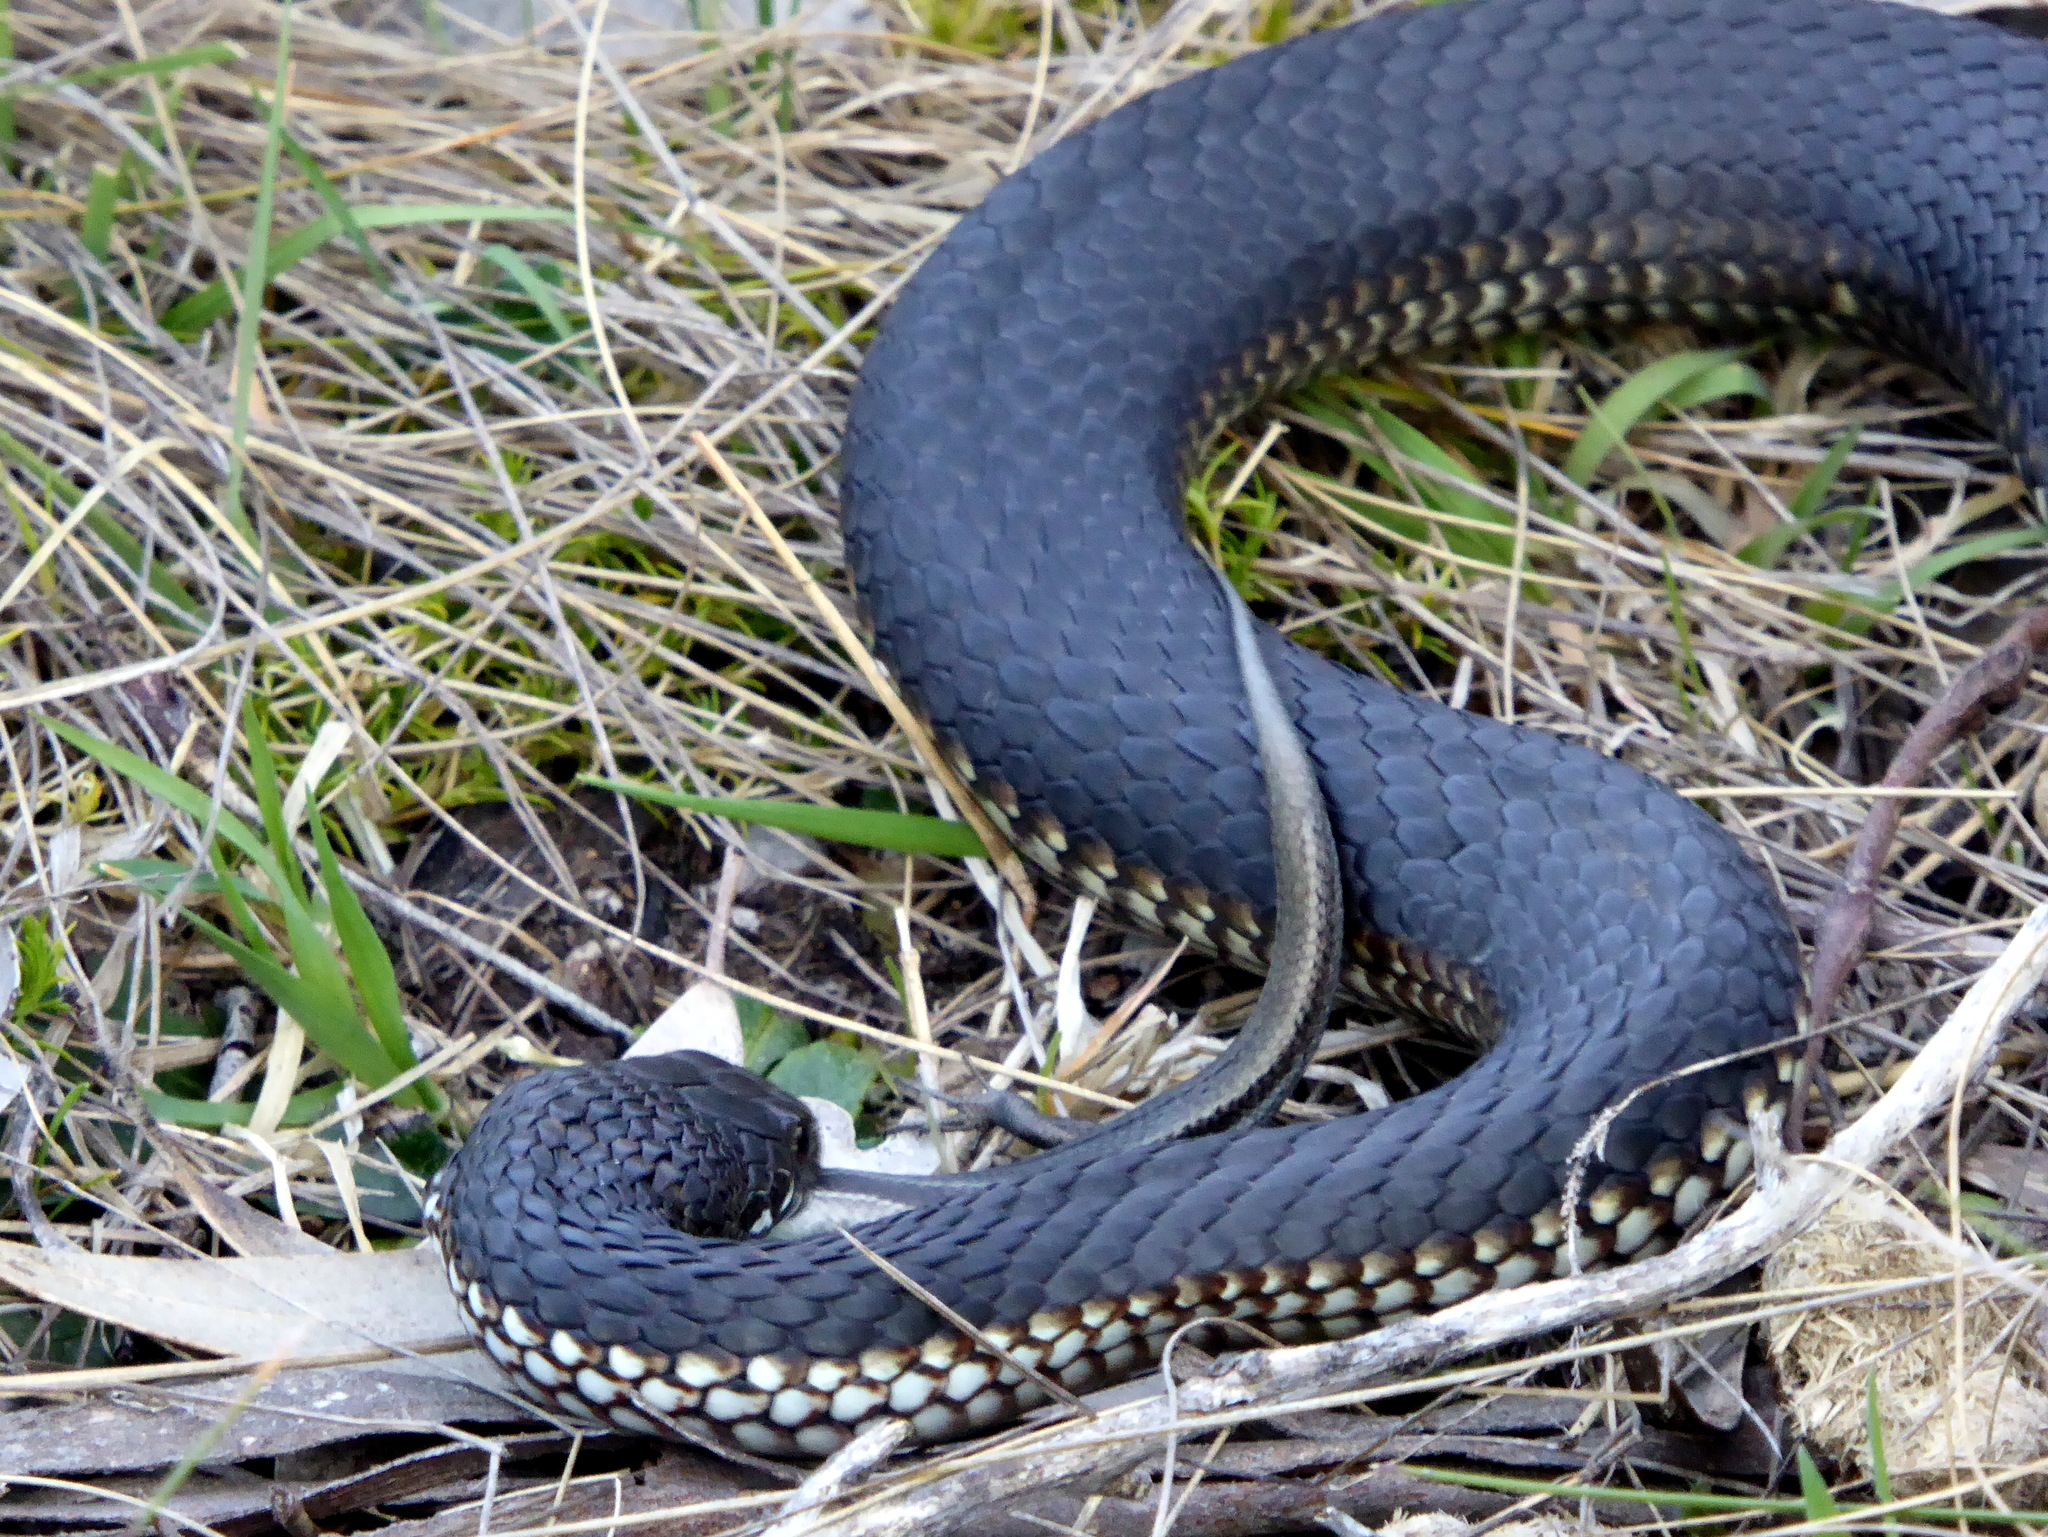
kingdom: Animalia
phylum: Chordata
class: Squamata
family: Elapidae
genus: Austrelaps
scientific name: Austrelaps ramsayi
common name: Highlands copperhead
